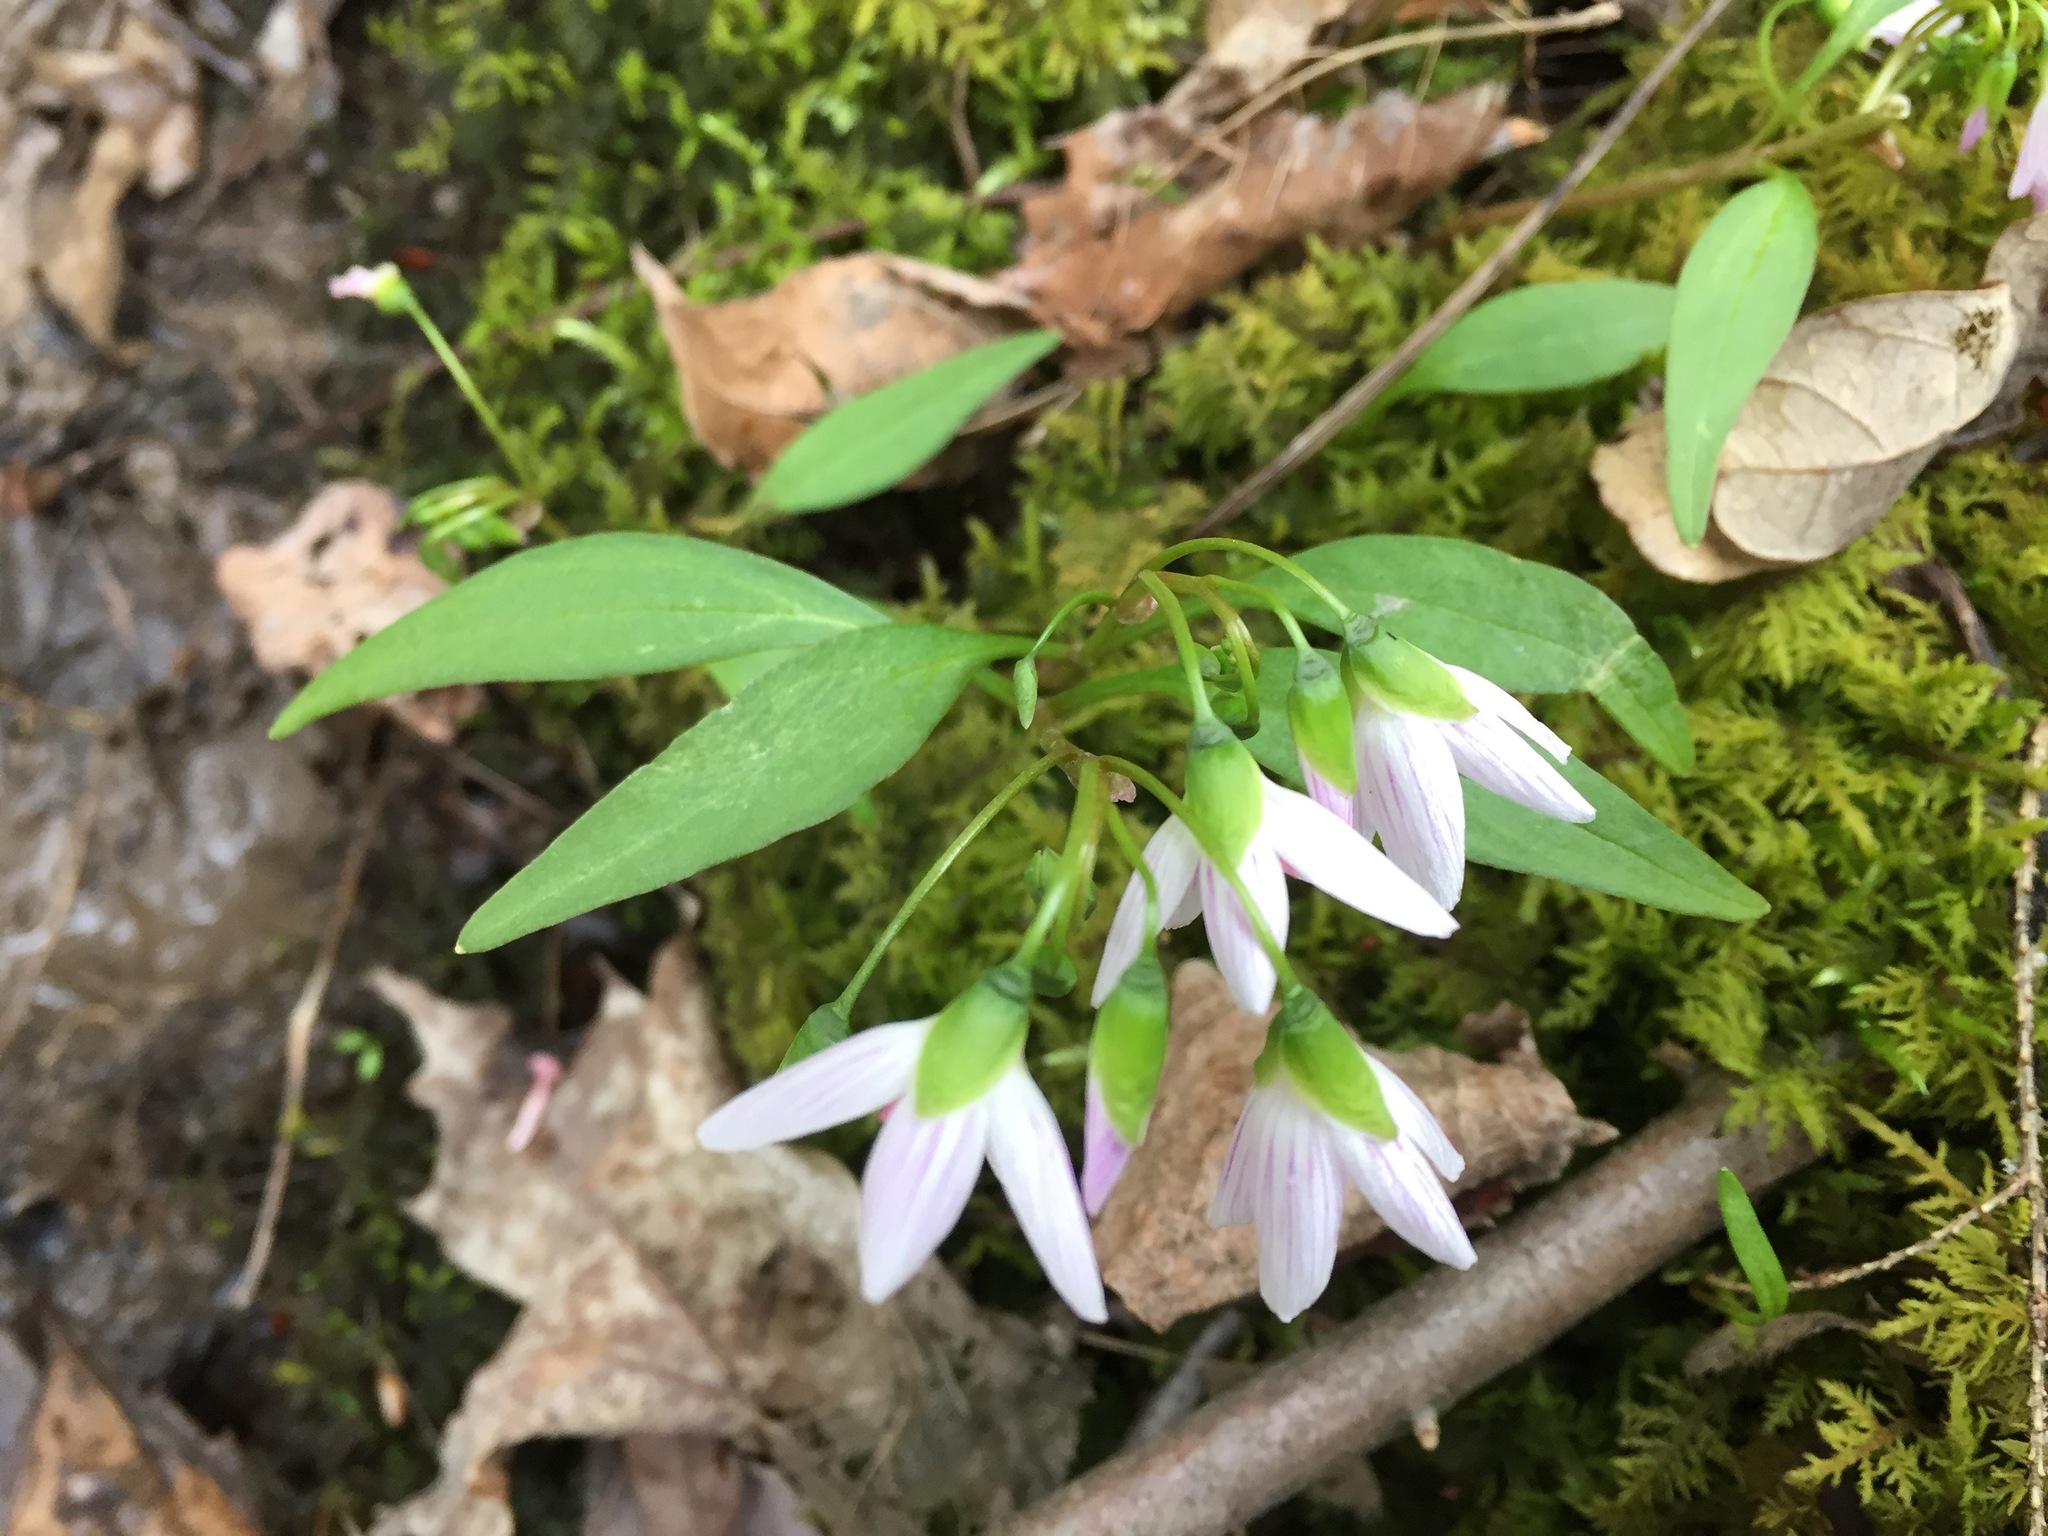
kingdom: Plantae
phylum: Tracheophyta
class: Magnoliopsida
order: Caryophyllales
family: Montiaceae
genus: Claytonia
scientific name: Claytonia caroliniana
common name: Carolina spring beauty
